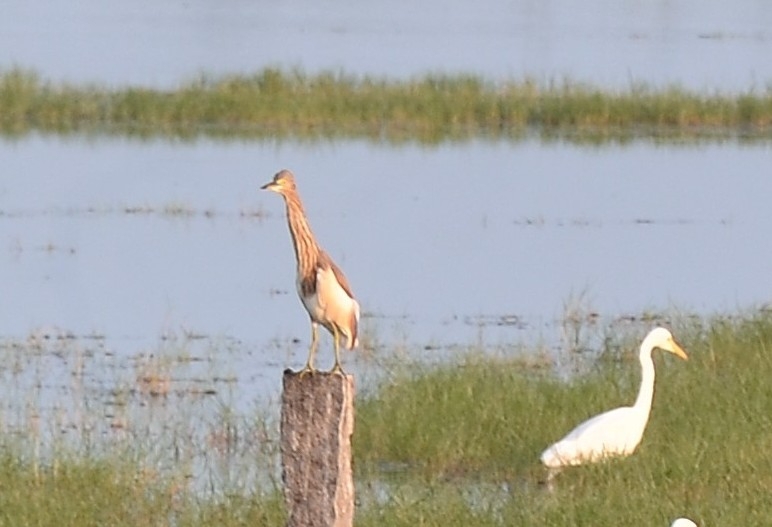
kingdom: Animalia
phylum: Chordata
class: Aves
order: Pelecaniformes
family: Ardeidae
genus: Ardeola
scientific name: Ardeola grayii
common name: Indian pond heron
